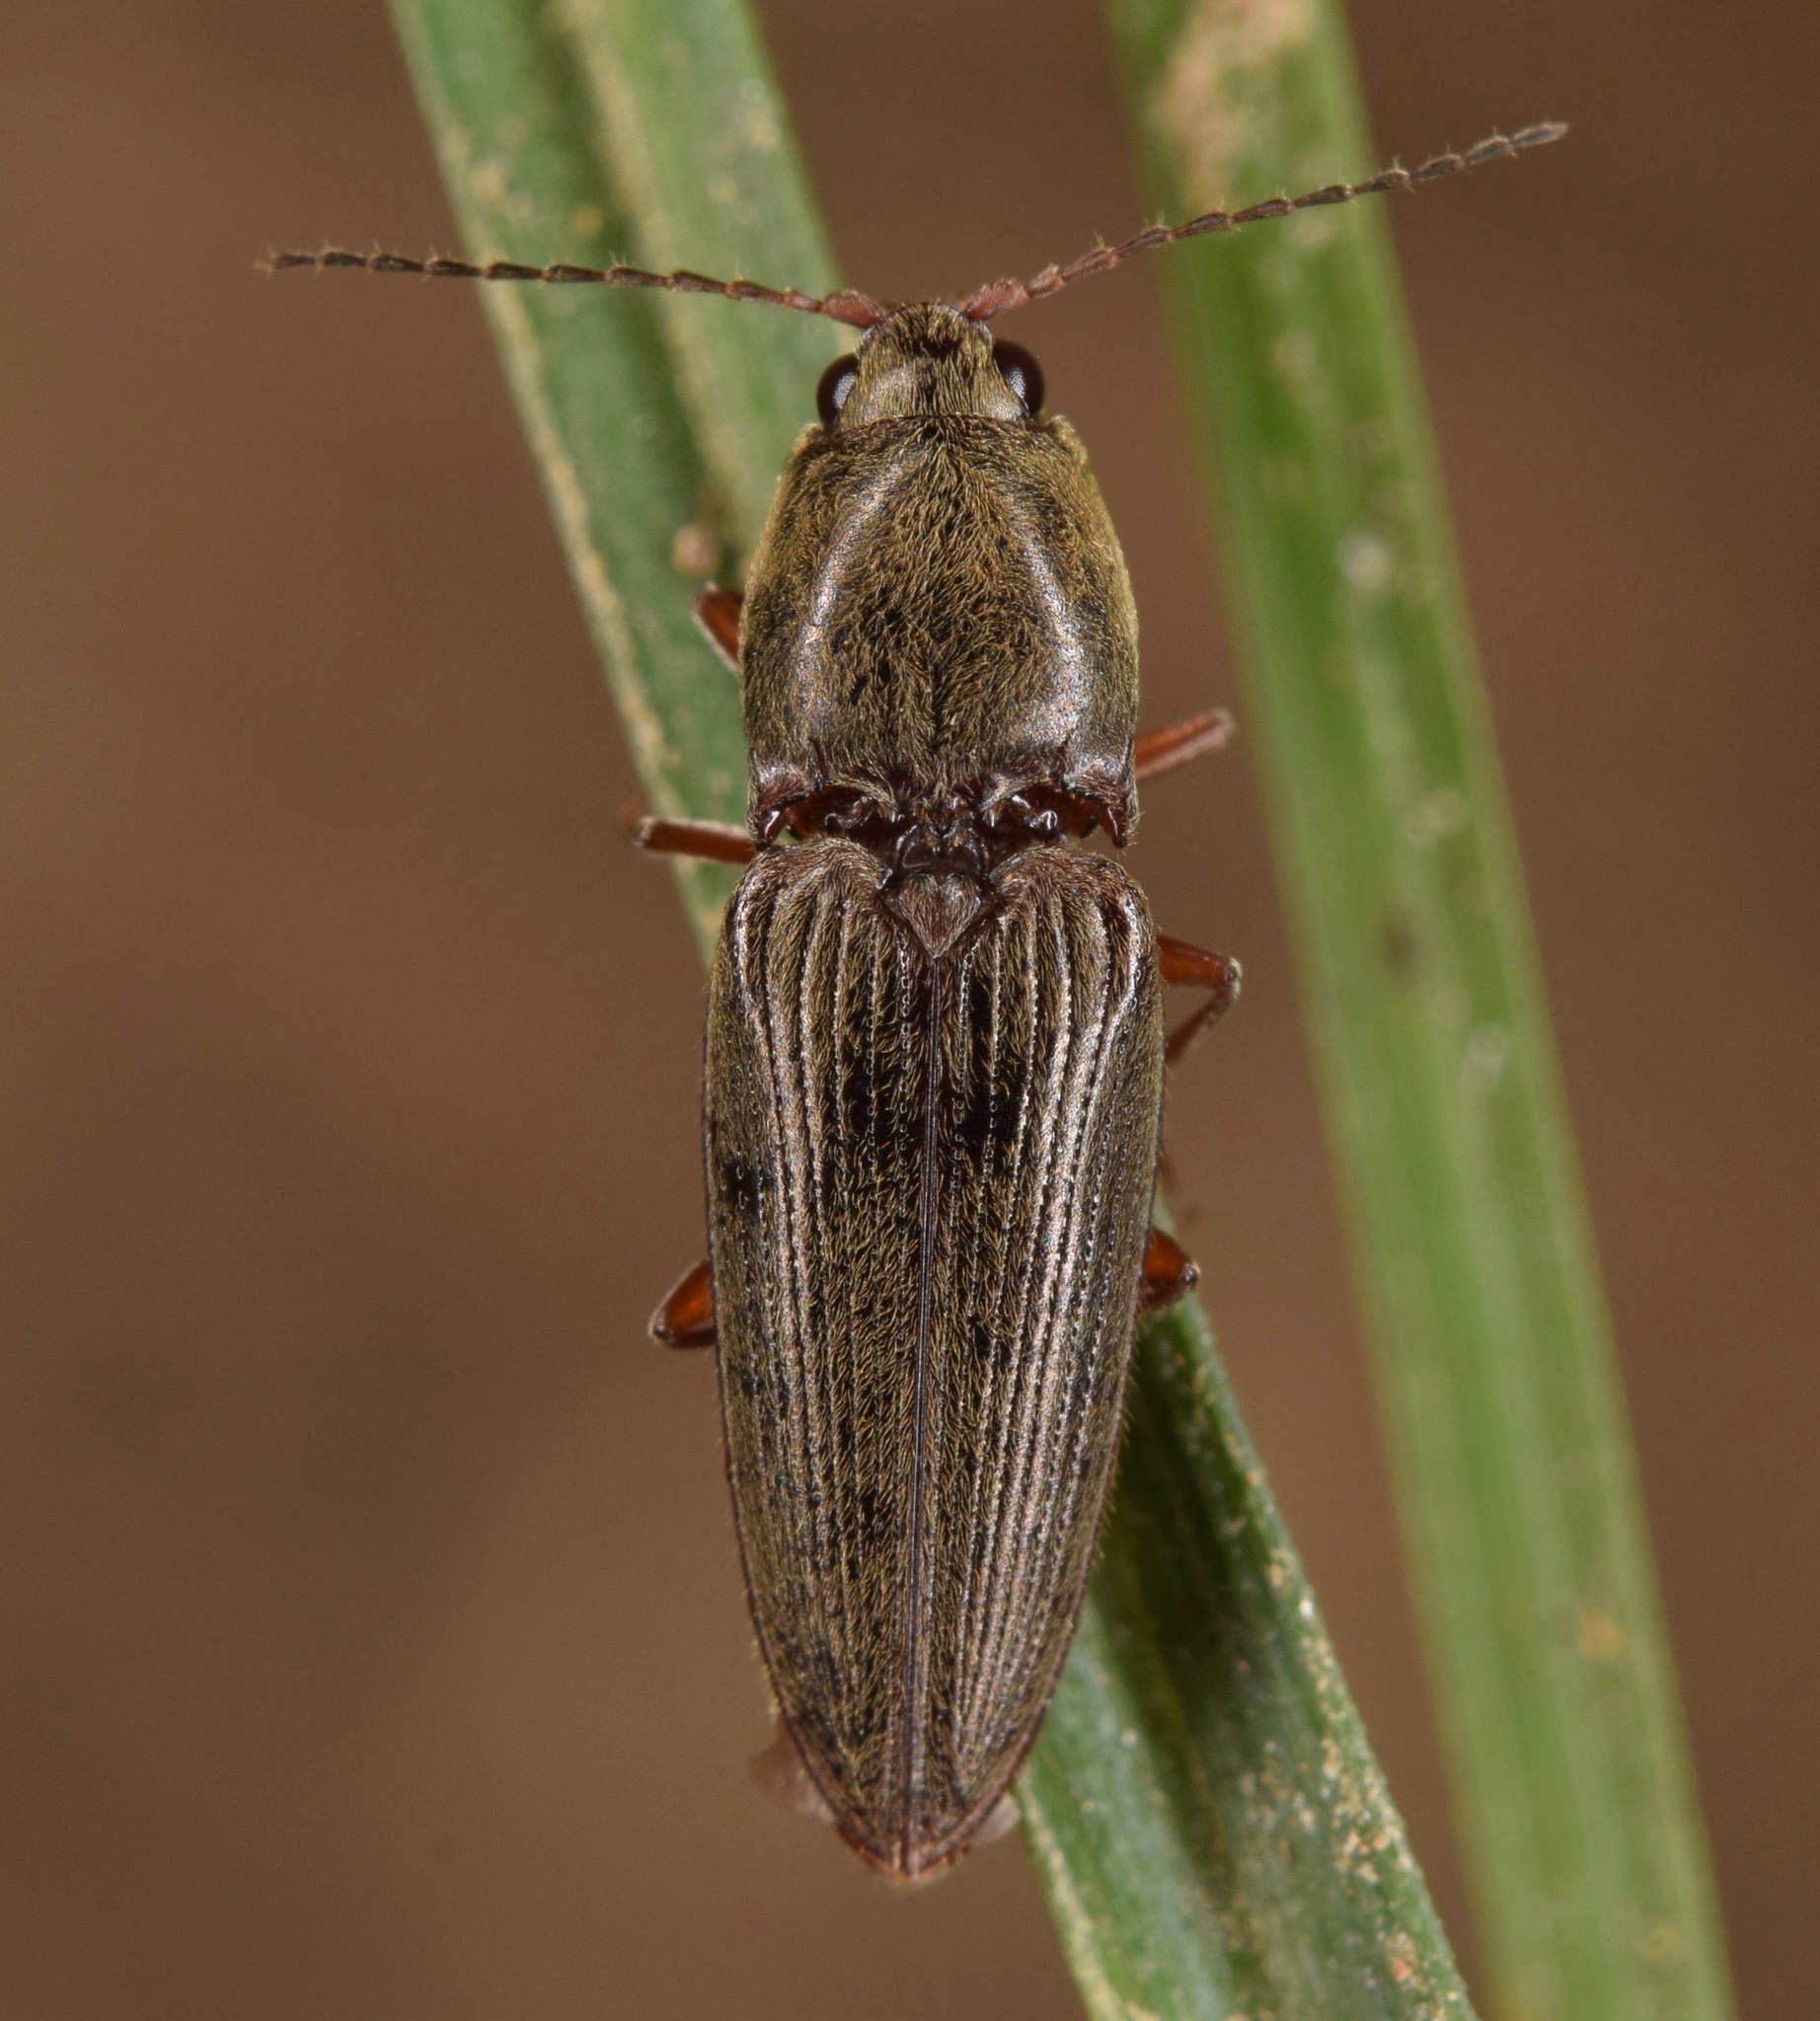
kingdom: Animalia
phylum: Arthropoda
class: Insecta
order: Coleoptera
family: Elateridae
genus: Cardiophorus
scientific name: Cardiophorus convexus
